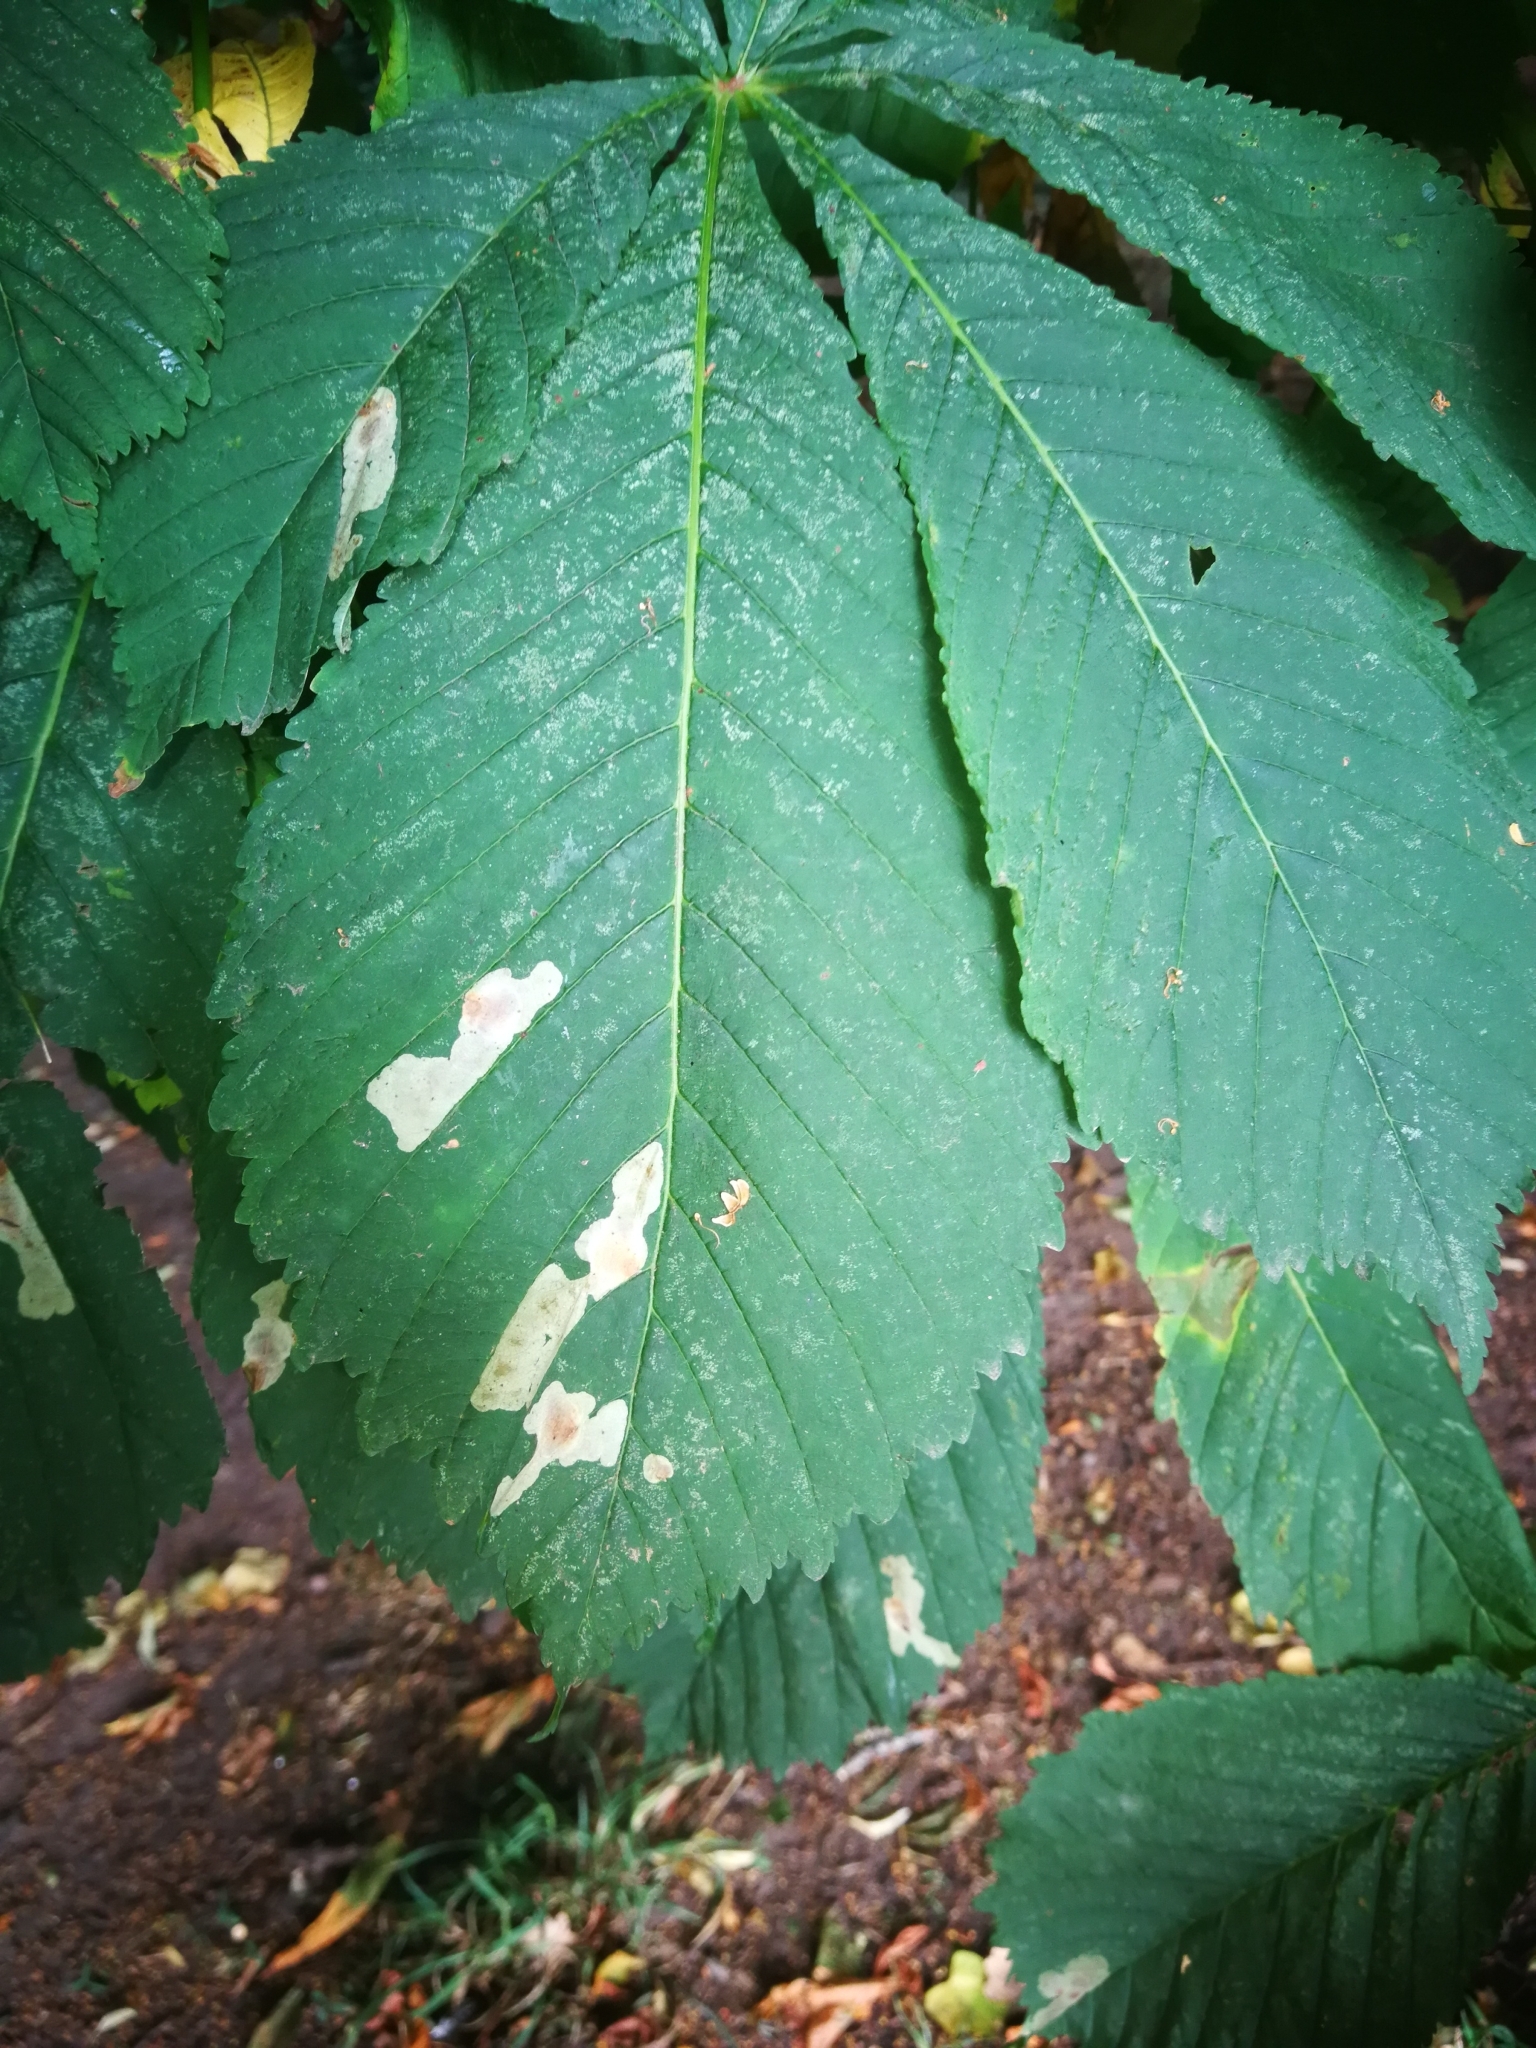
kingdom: Animalia
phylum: Arthropoda
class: Insecta
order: Lepidoptera
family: Gracillariidae
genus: Cameraria
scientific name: Cameraria ohridella
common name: Horse-chestnut leaf-miner
